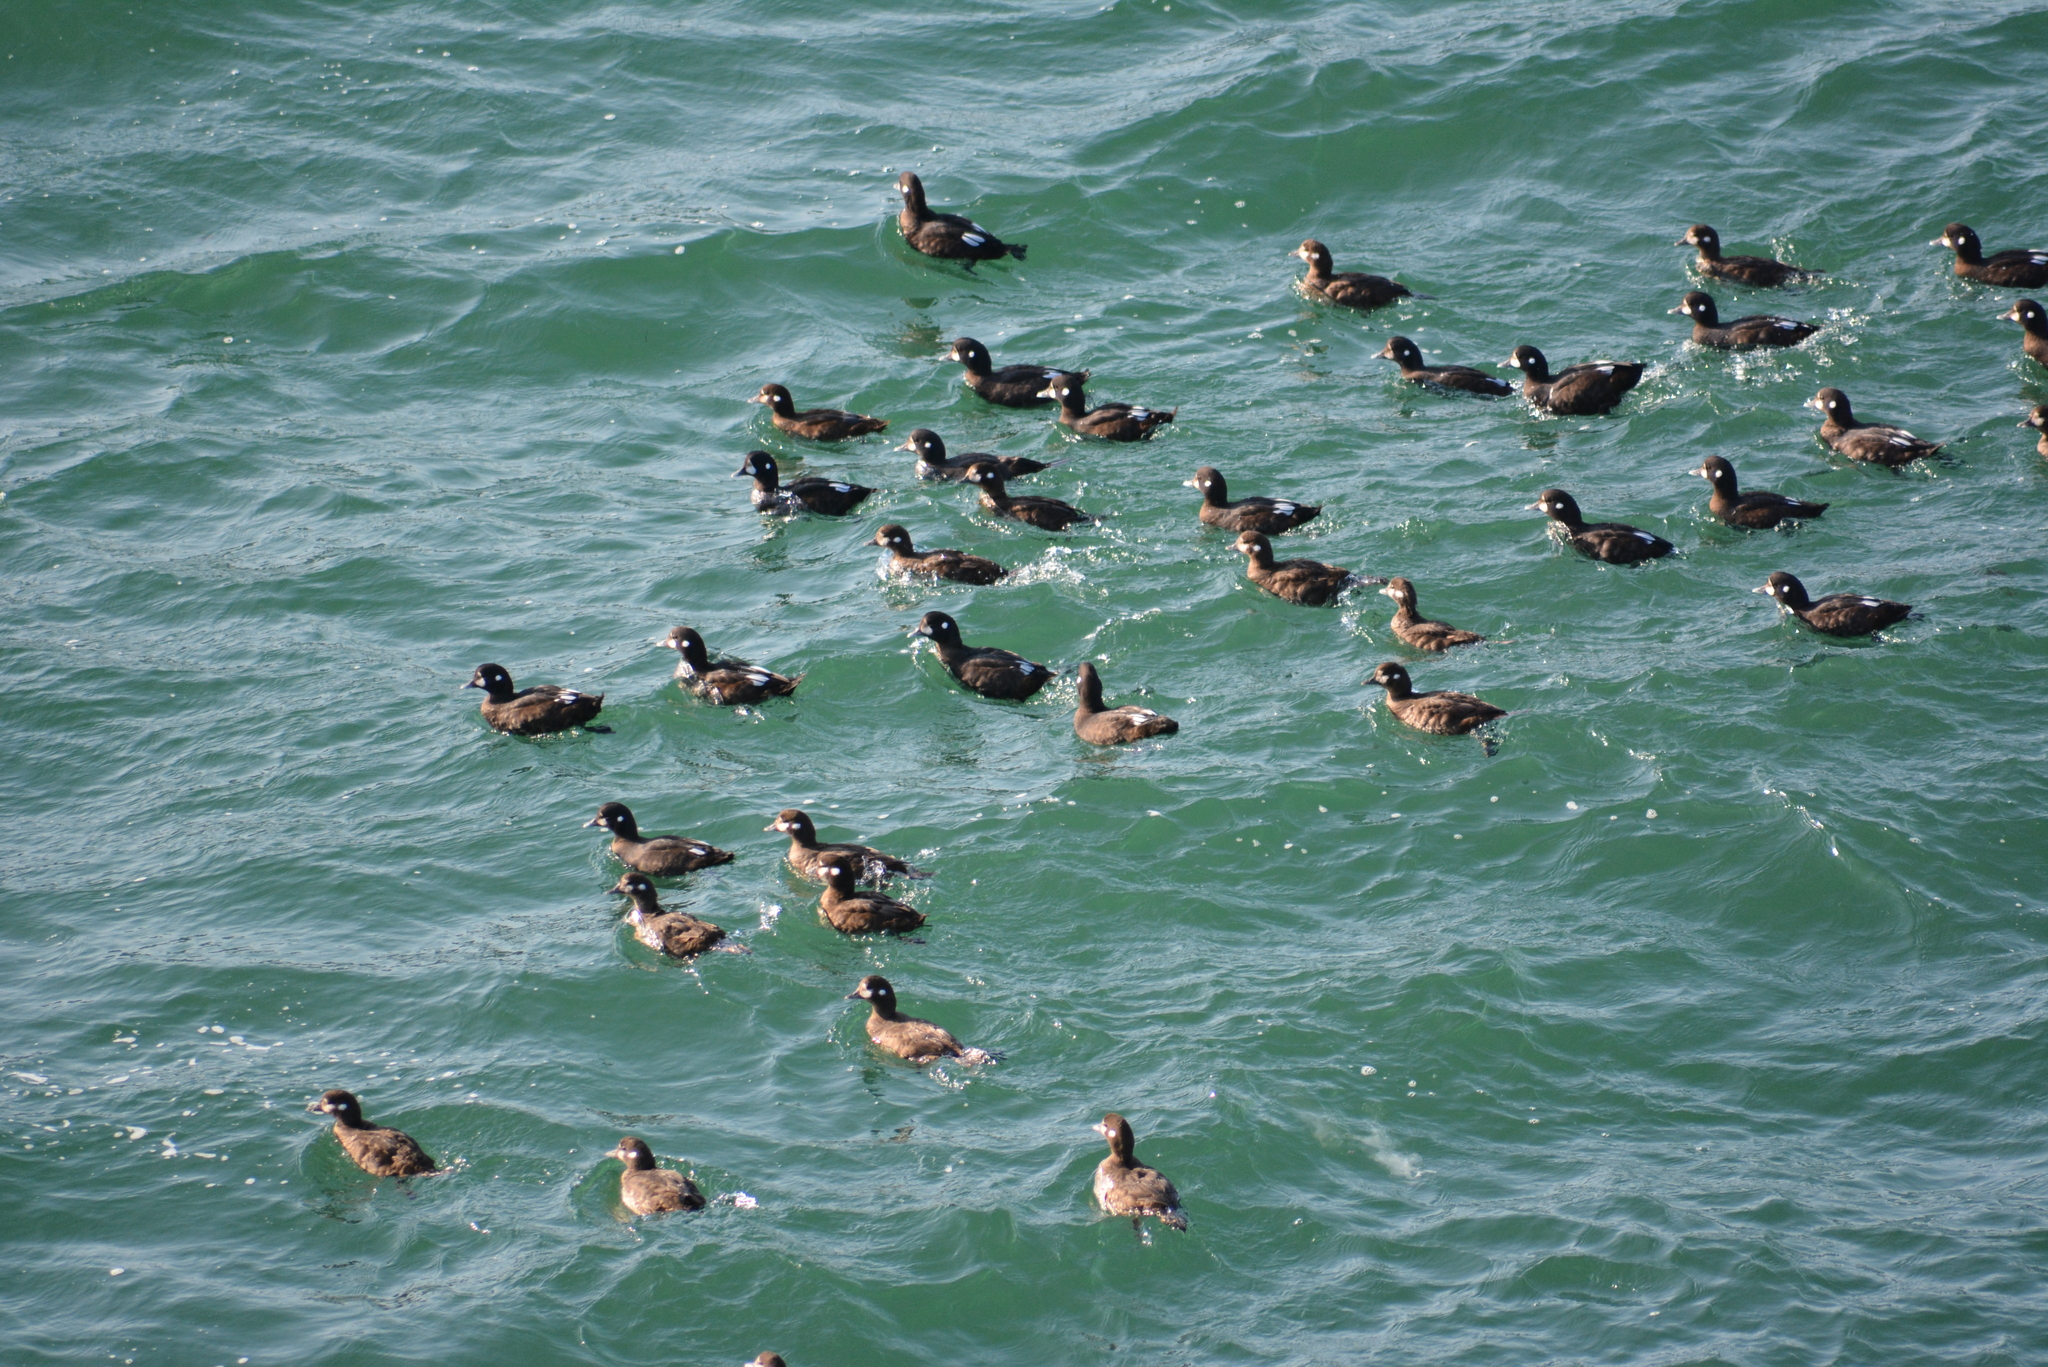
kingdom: Animalia
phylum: Chordata
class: Aves
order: Anseriformes
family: Anatidae
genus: Histrionicus
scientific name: Histrionicus histrionicus
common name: Harlequin duck
